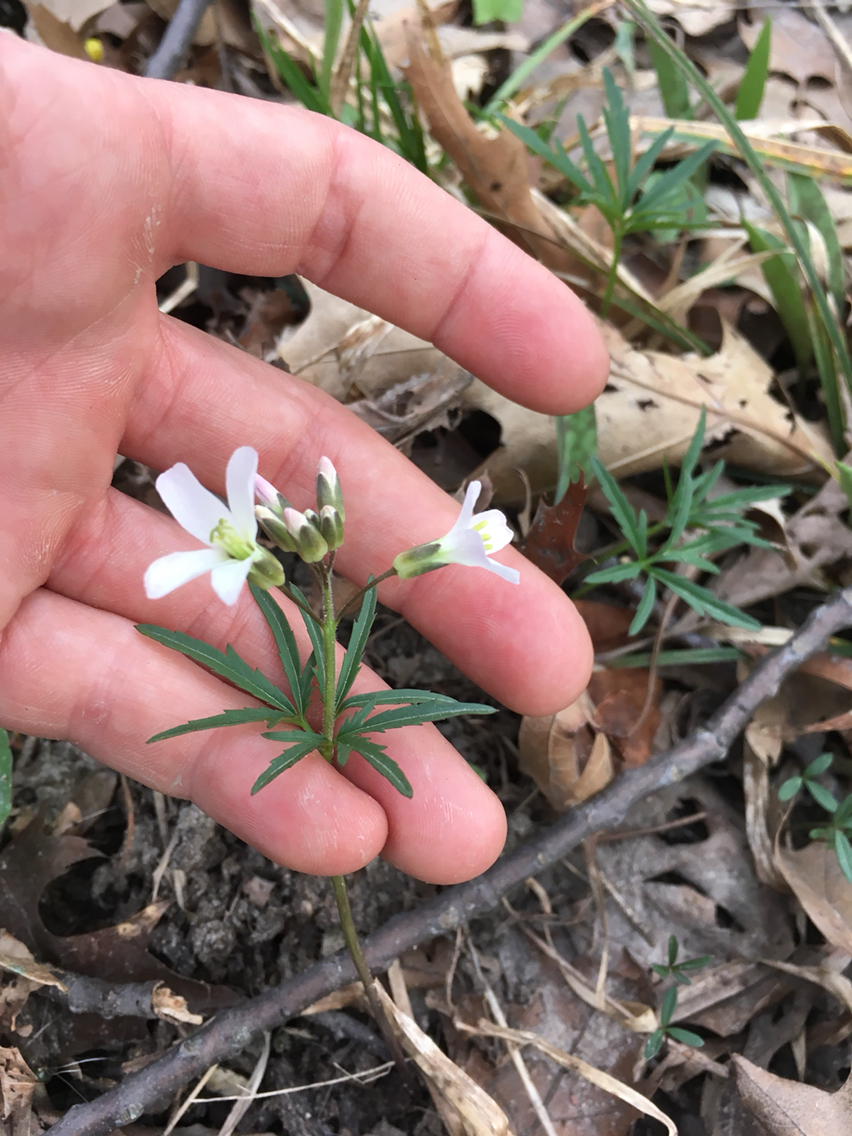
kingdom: Plantae
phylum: Tracheophyta
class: Magnoliopsida
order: Brassicales
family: Brassicaceae
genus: Cardamine
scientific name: Cardamine concatenata
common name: Cut-leaf toothcup
